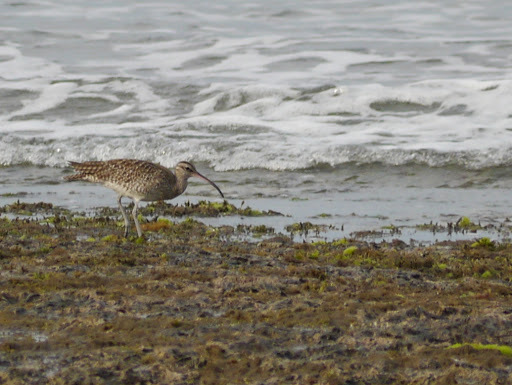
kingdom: Animalia
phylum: Chordata
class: Aves
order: Charadriiformes
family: Scolopacidae
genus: Numenius
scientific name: Numenius phaeopus
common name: Whimbrel
